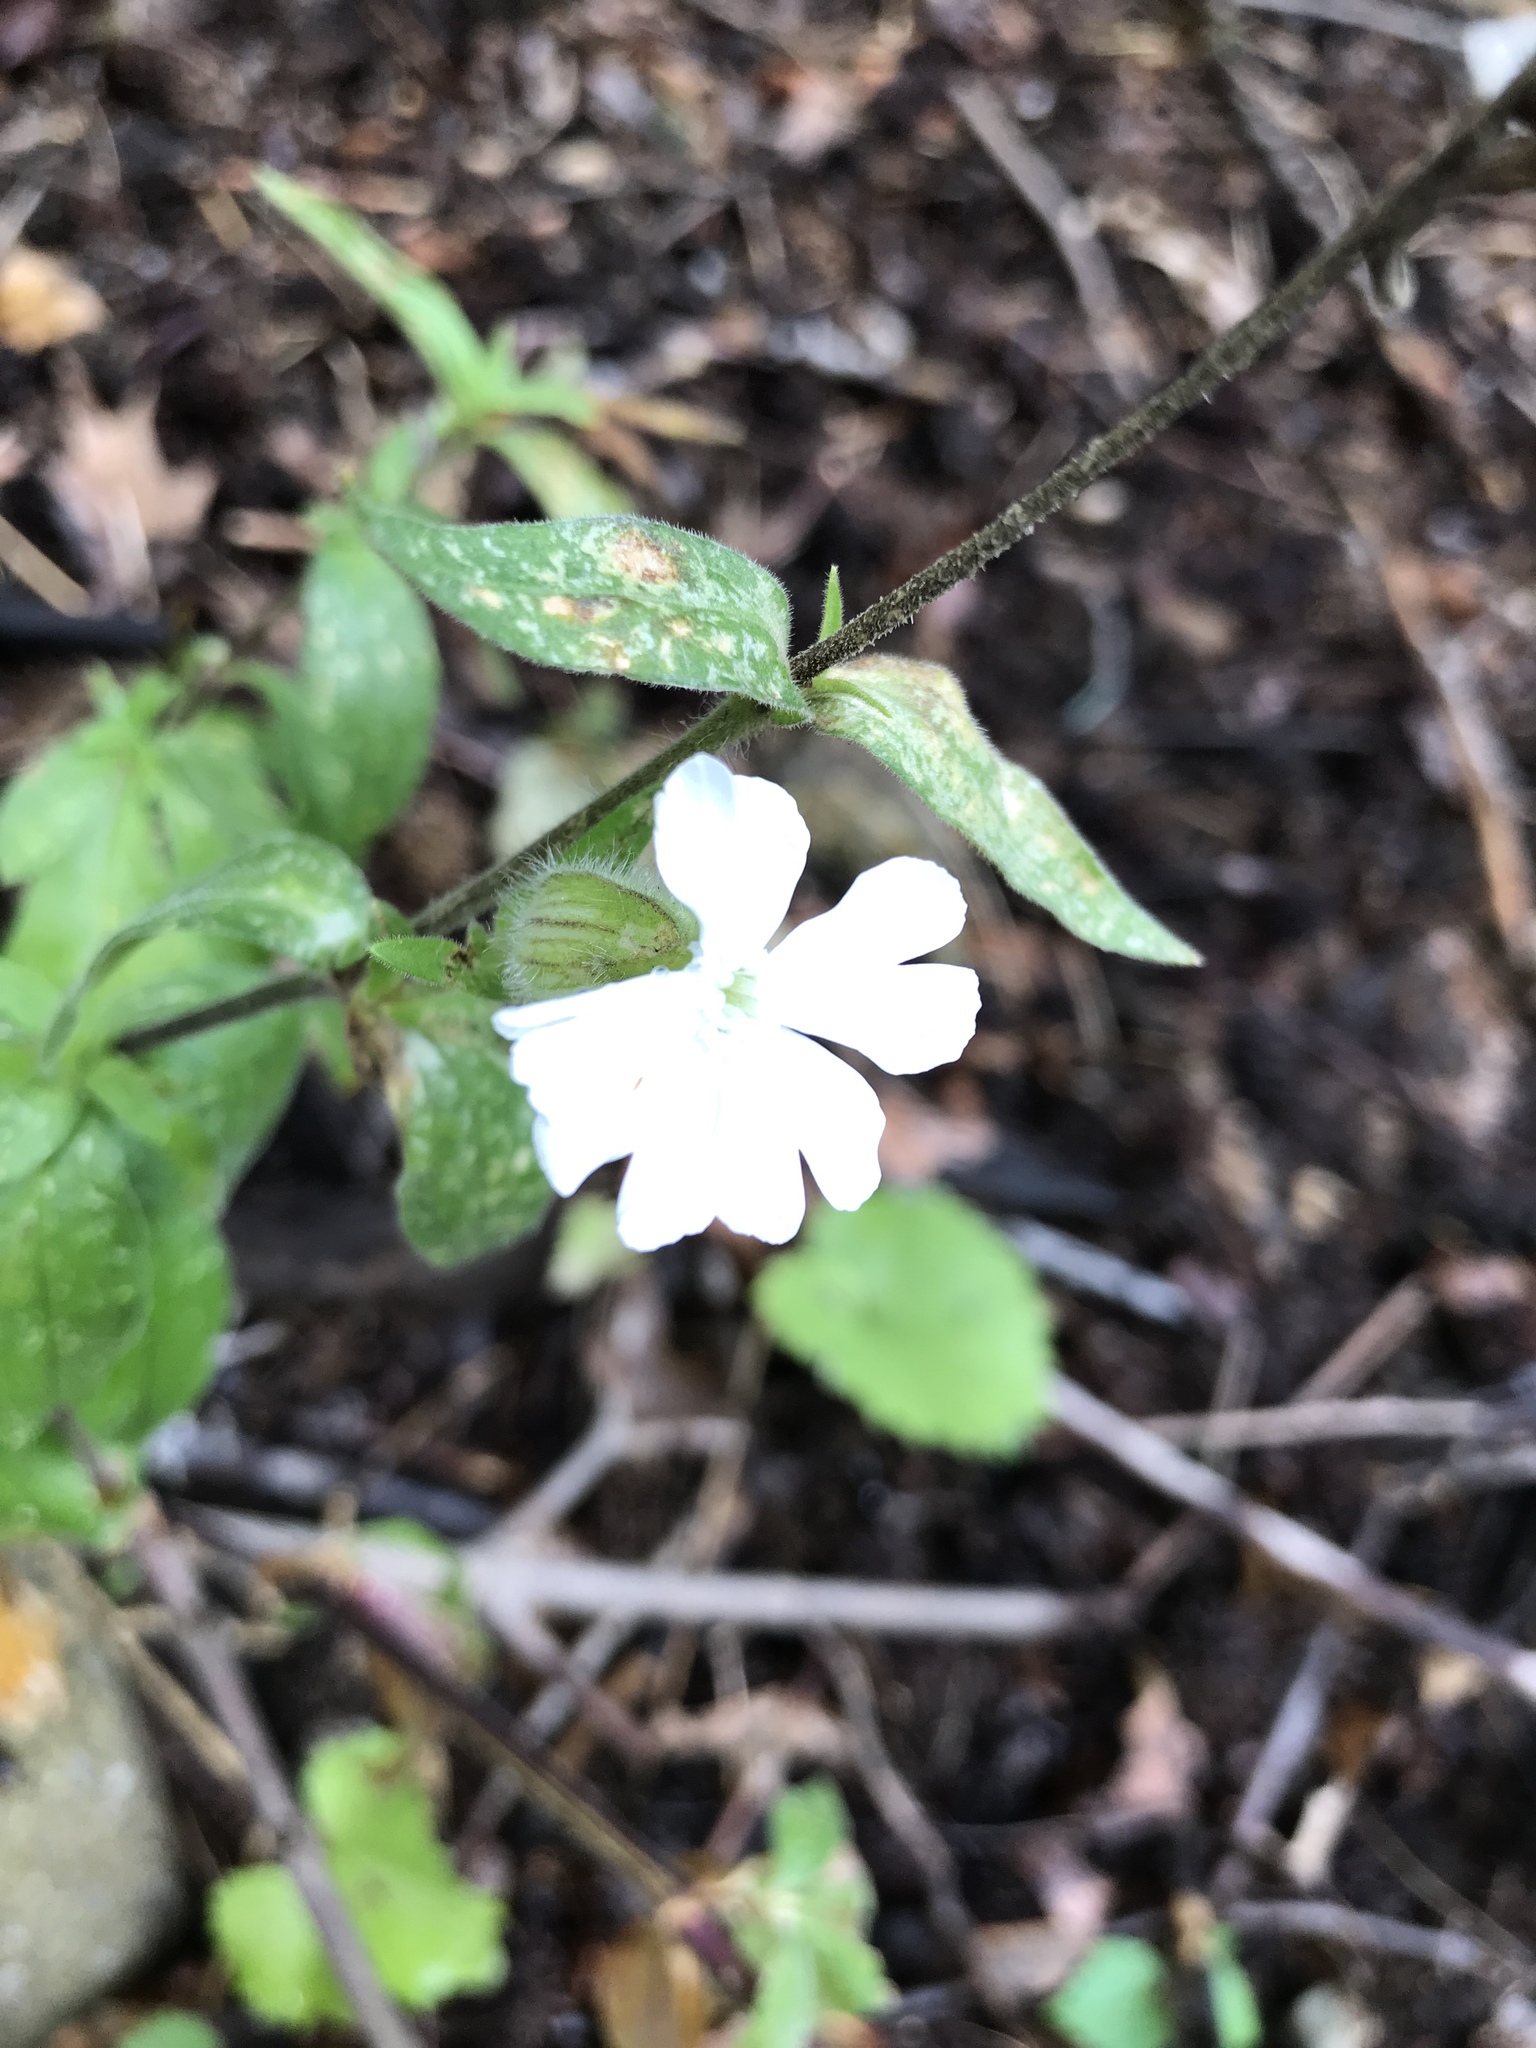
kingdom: Plantae
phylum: Tracheophyta
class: Magnoliopsida
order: Caryophyllales
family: Caryophyllaceae
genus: Silene
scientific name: Silene latifolia
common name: White campion
